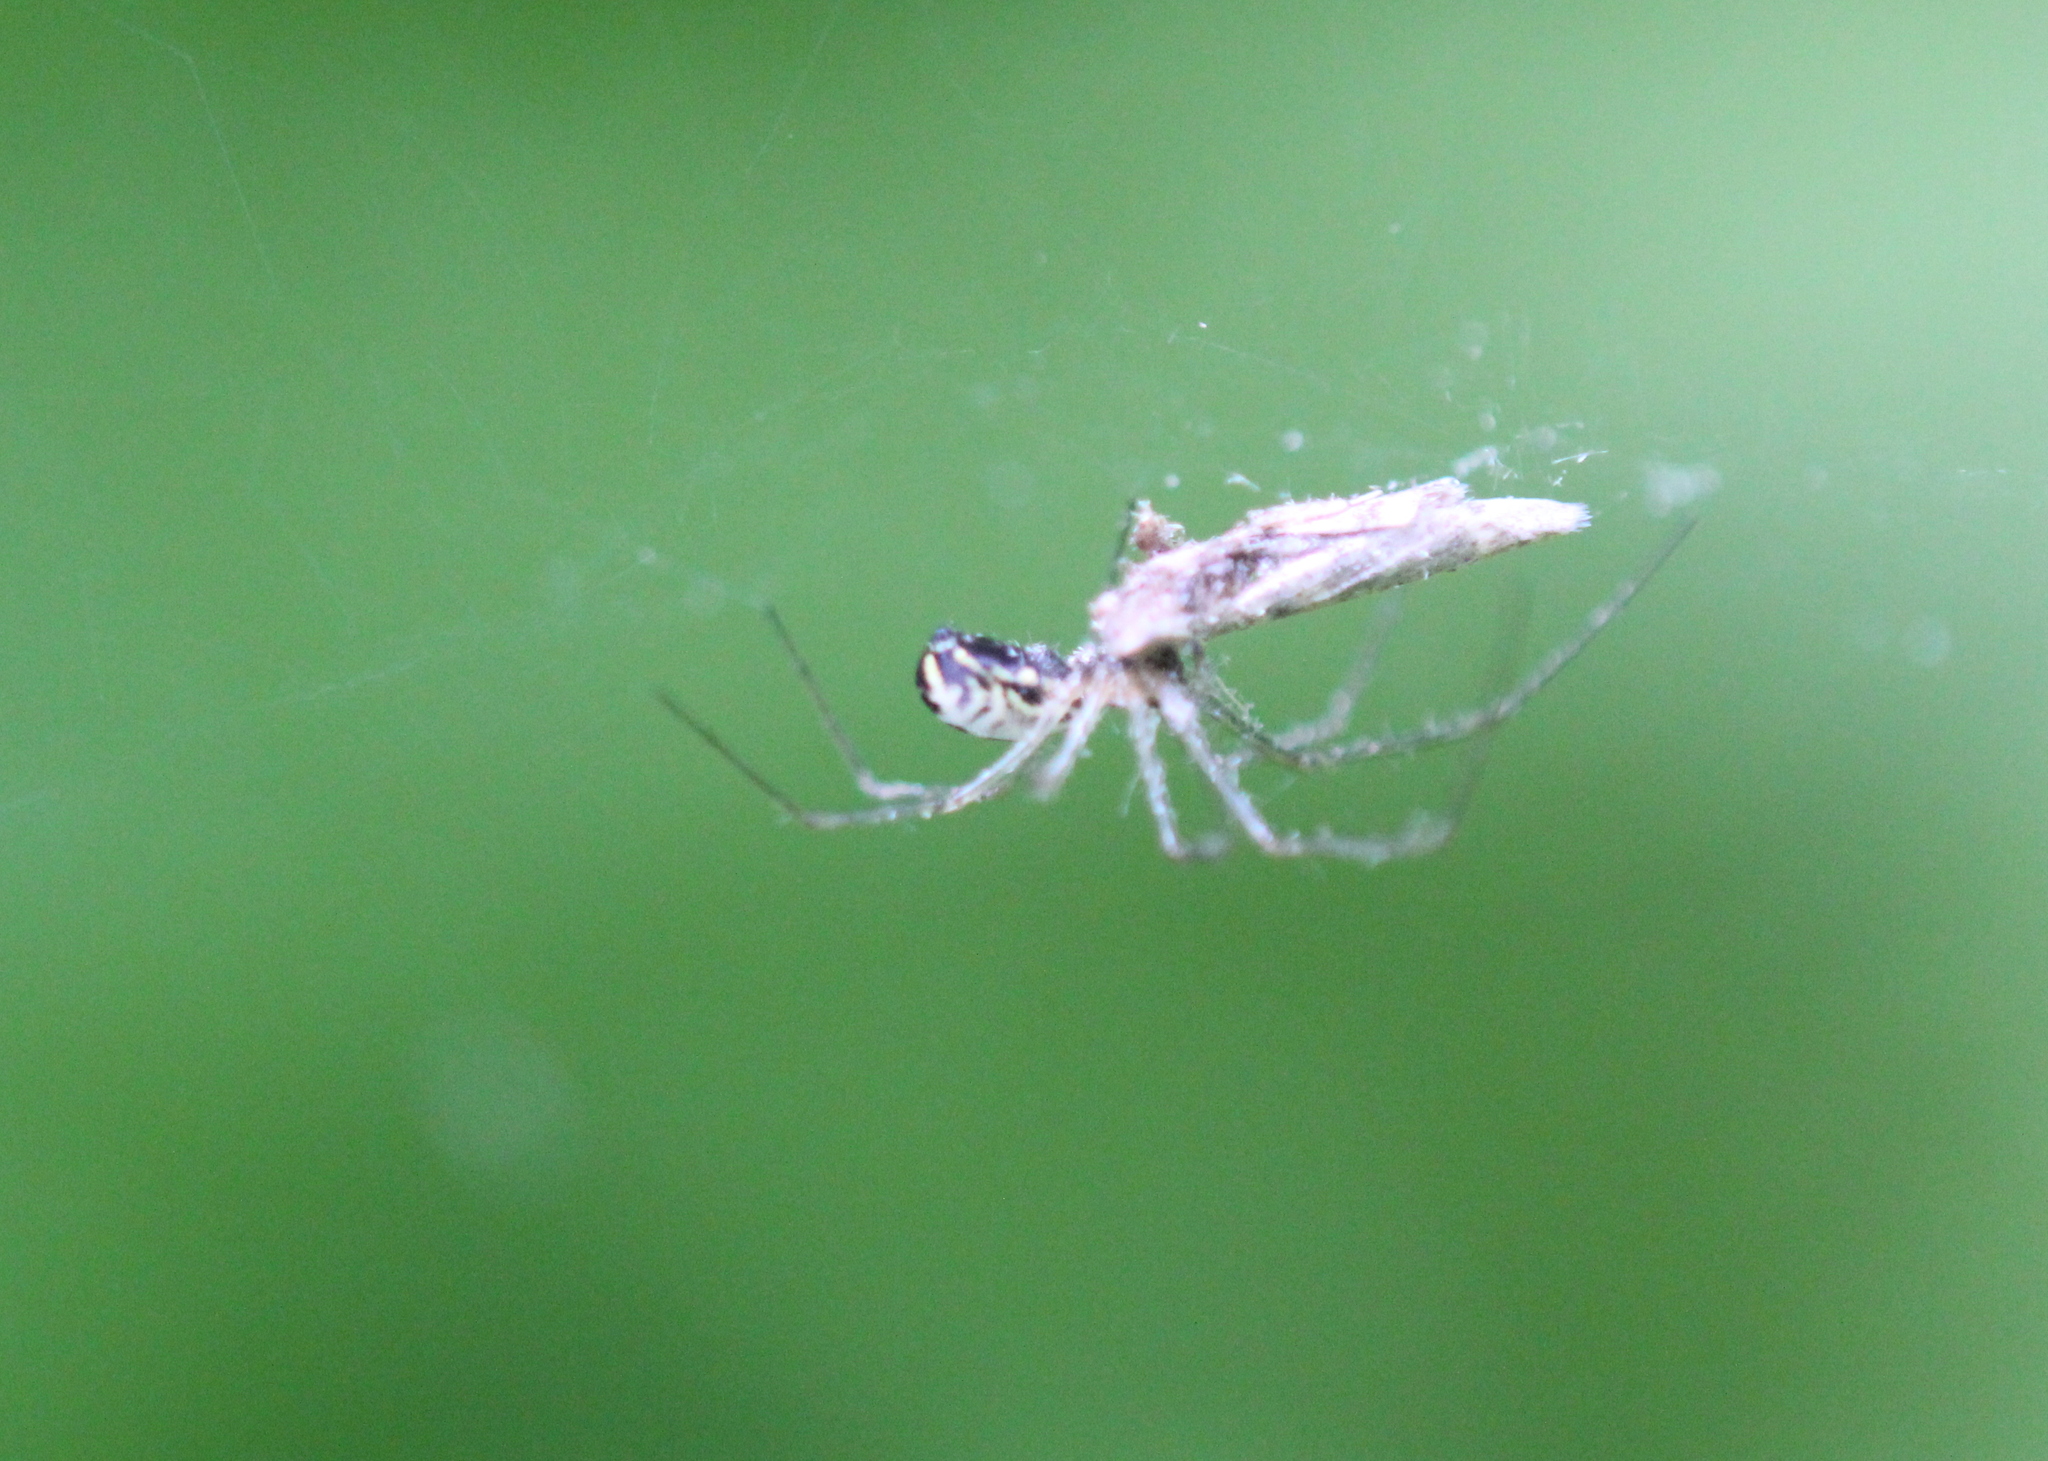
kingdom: Animalia
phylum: Arthropoda
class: Arachnida
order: Araneae
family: Linyphiidae
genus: Neriene
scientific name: Neriene radiata
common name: Filmy dome spider
